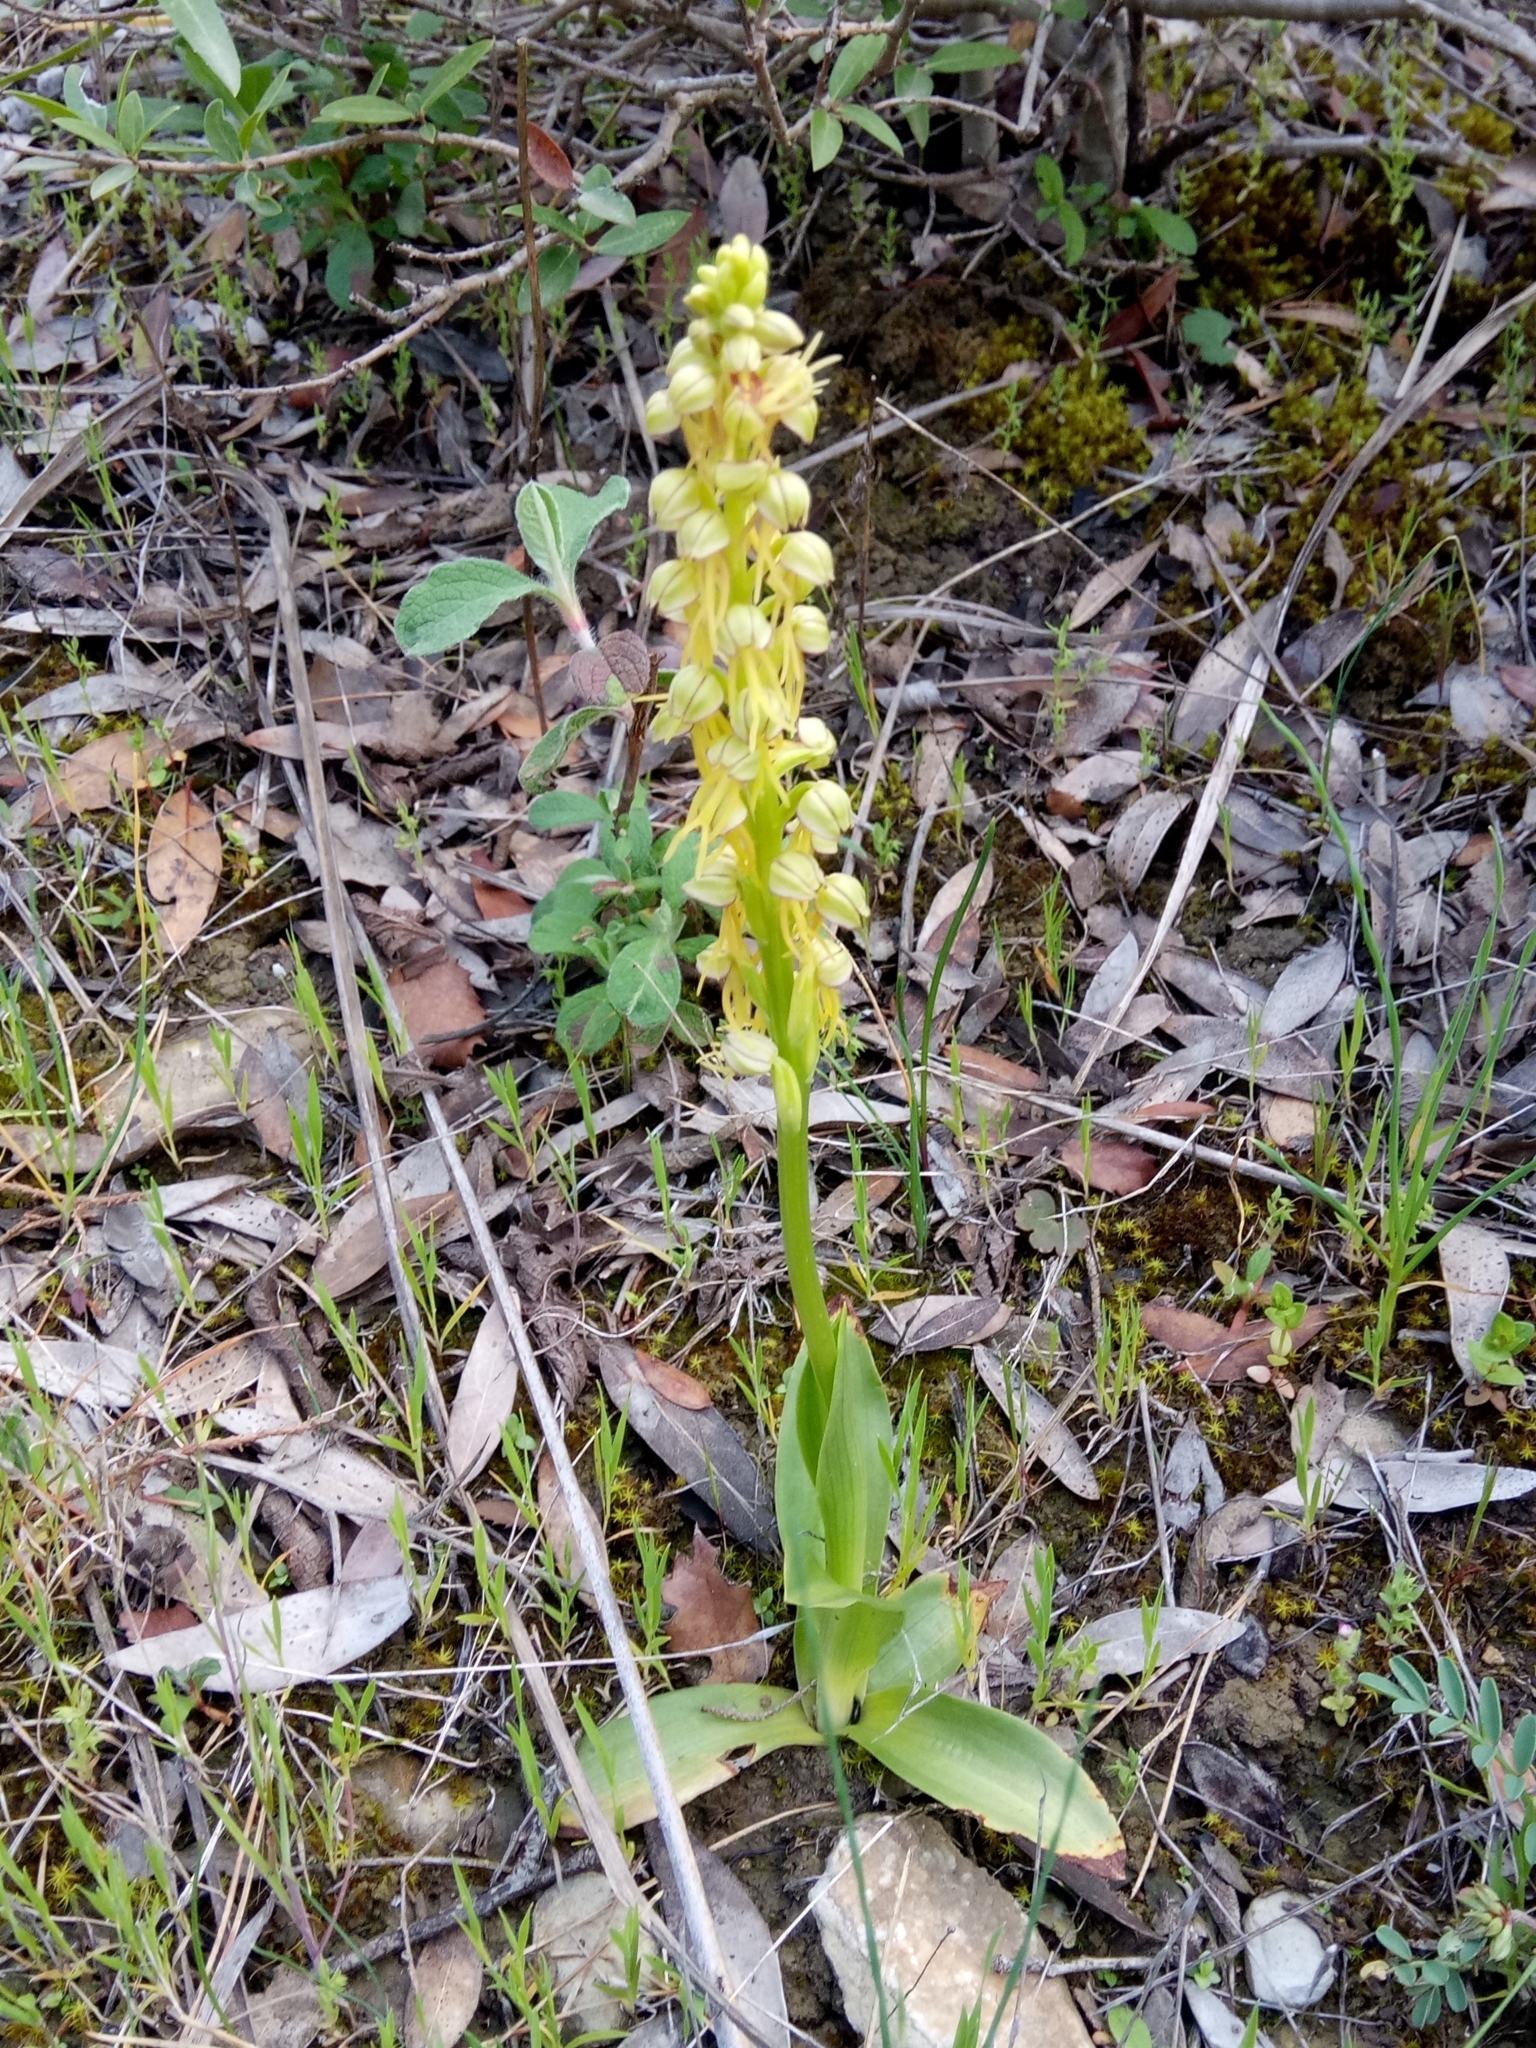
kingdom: Plantae
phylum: Tracheophyta
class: Liliopsida
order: Asparagales
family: Orchidaceae
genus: Orchis
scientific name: Orchis anthropophora
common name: Man orchid
